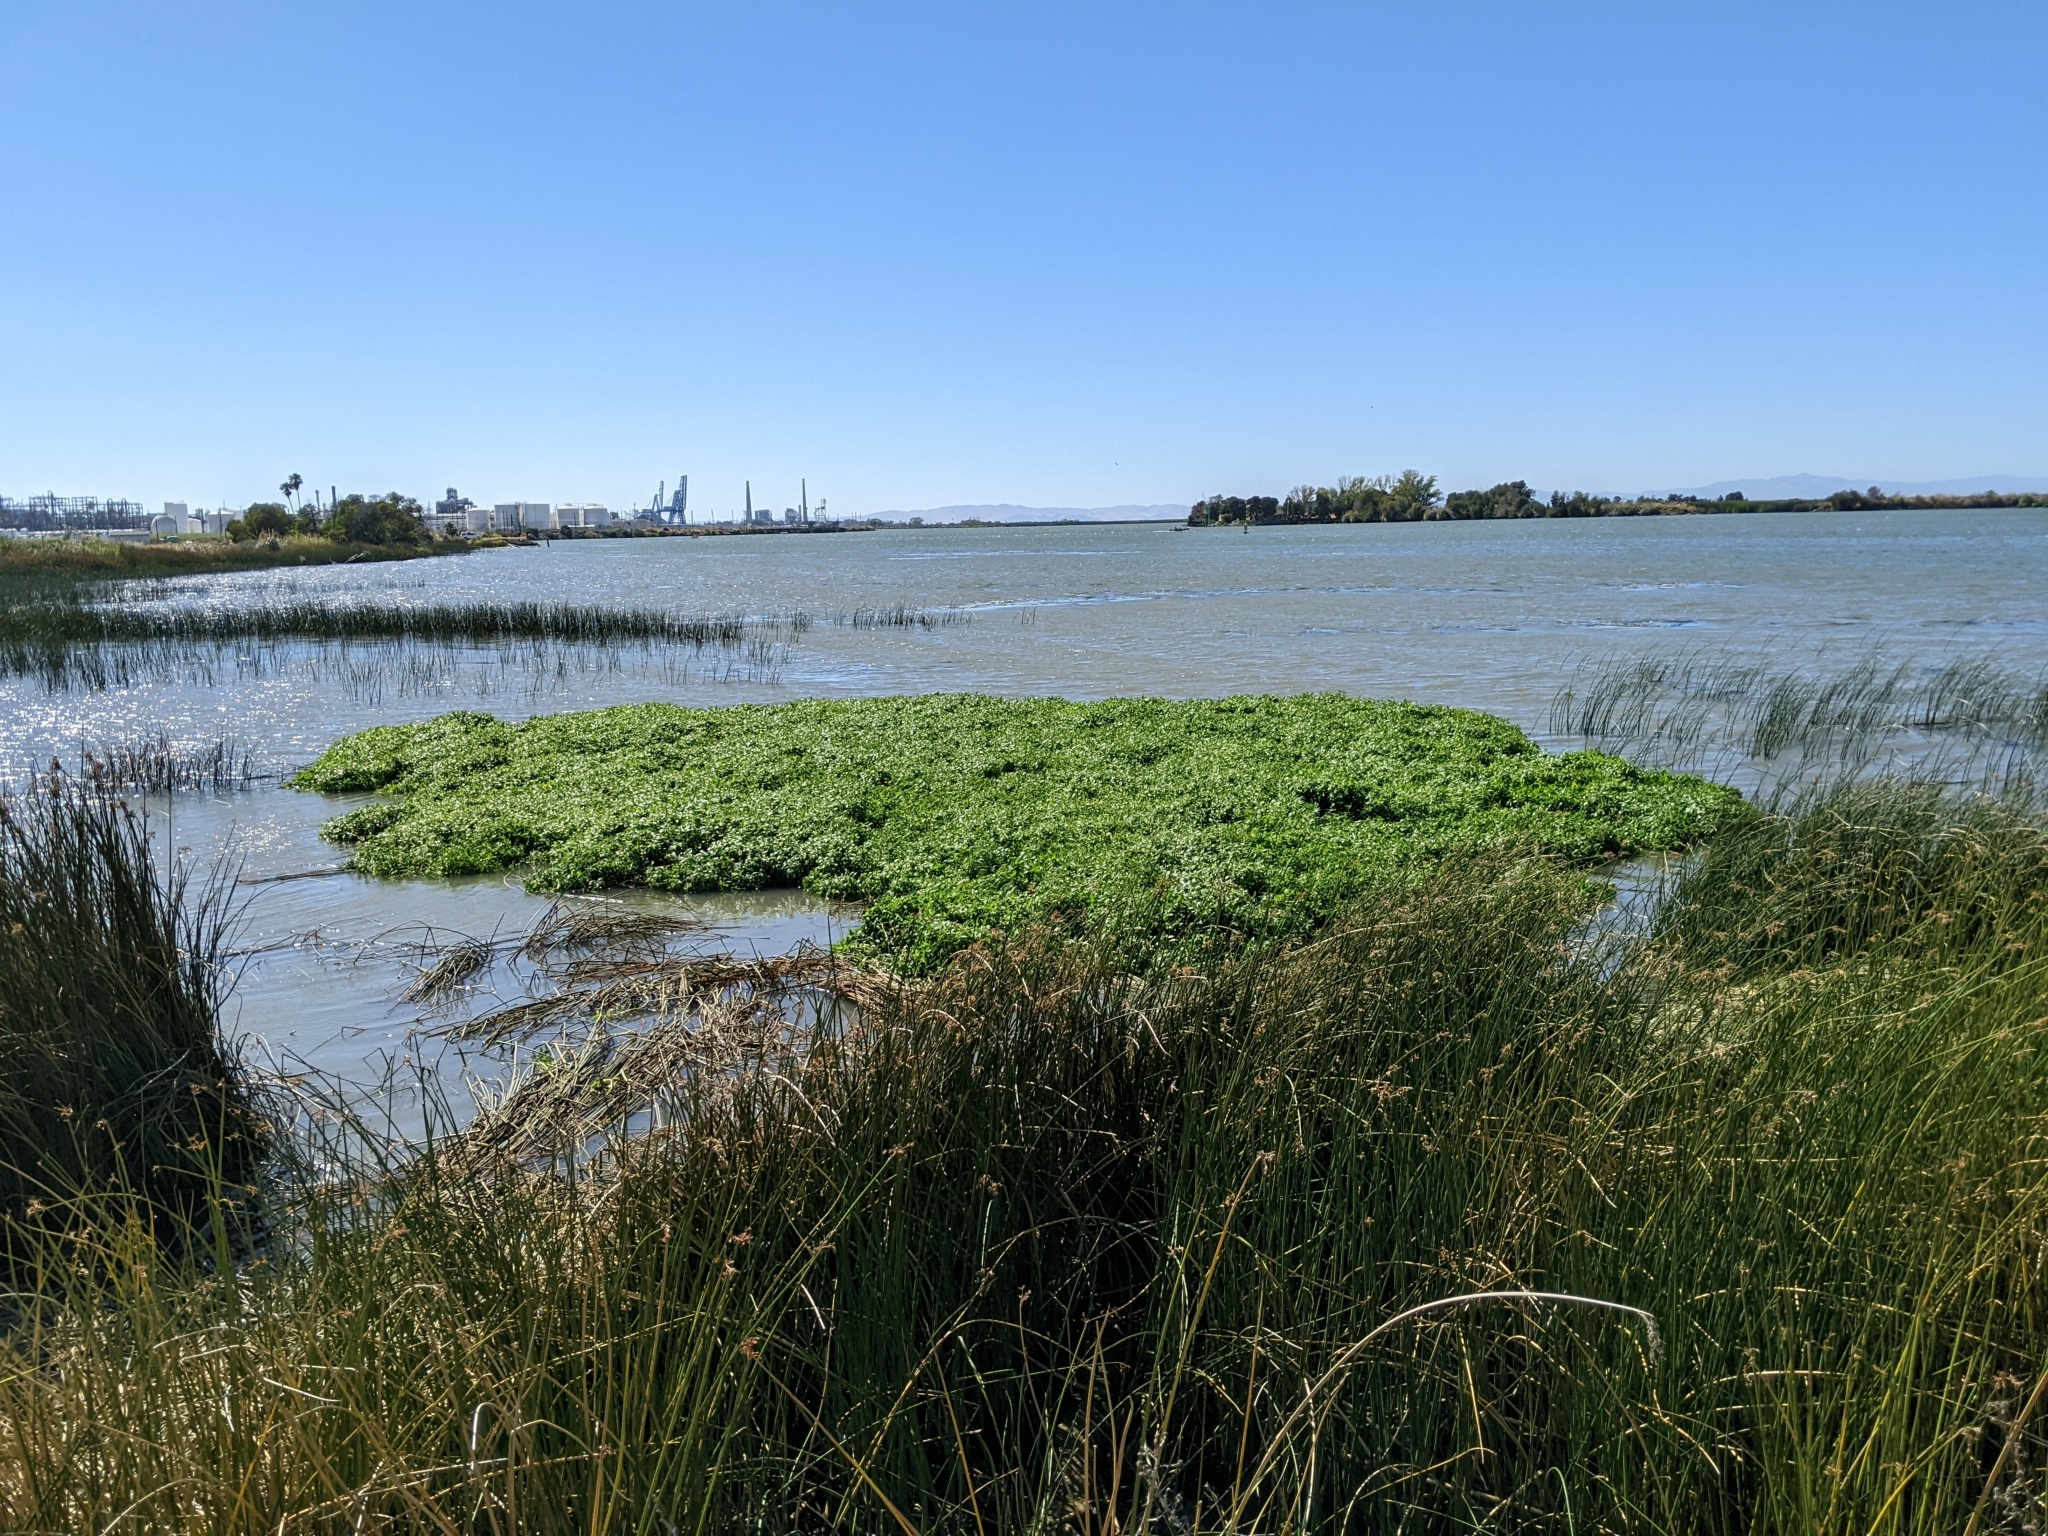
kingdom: Plantae
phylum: Tracheophyta
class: Magnoliopsida
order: Caryophyllales
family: Amaranthaceae
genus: Alternanthera
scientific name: Alternanthera philoxeroides
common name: Alligatorweed
